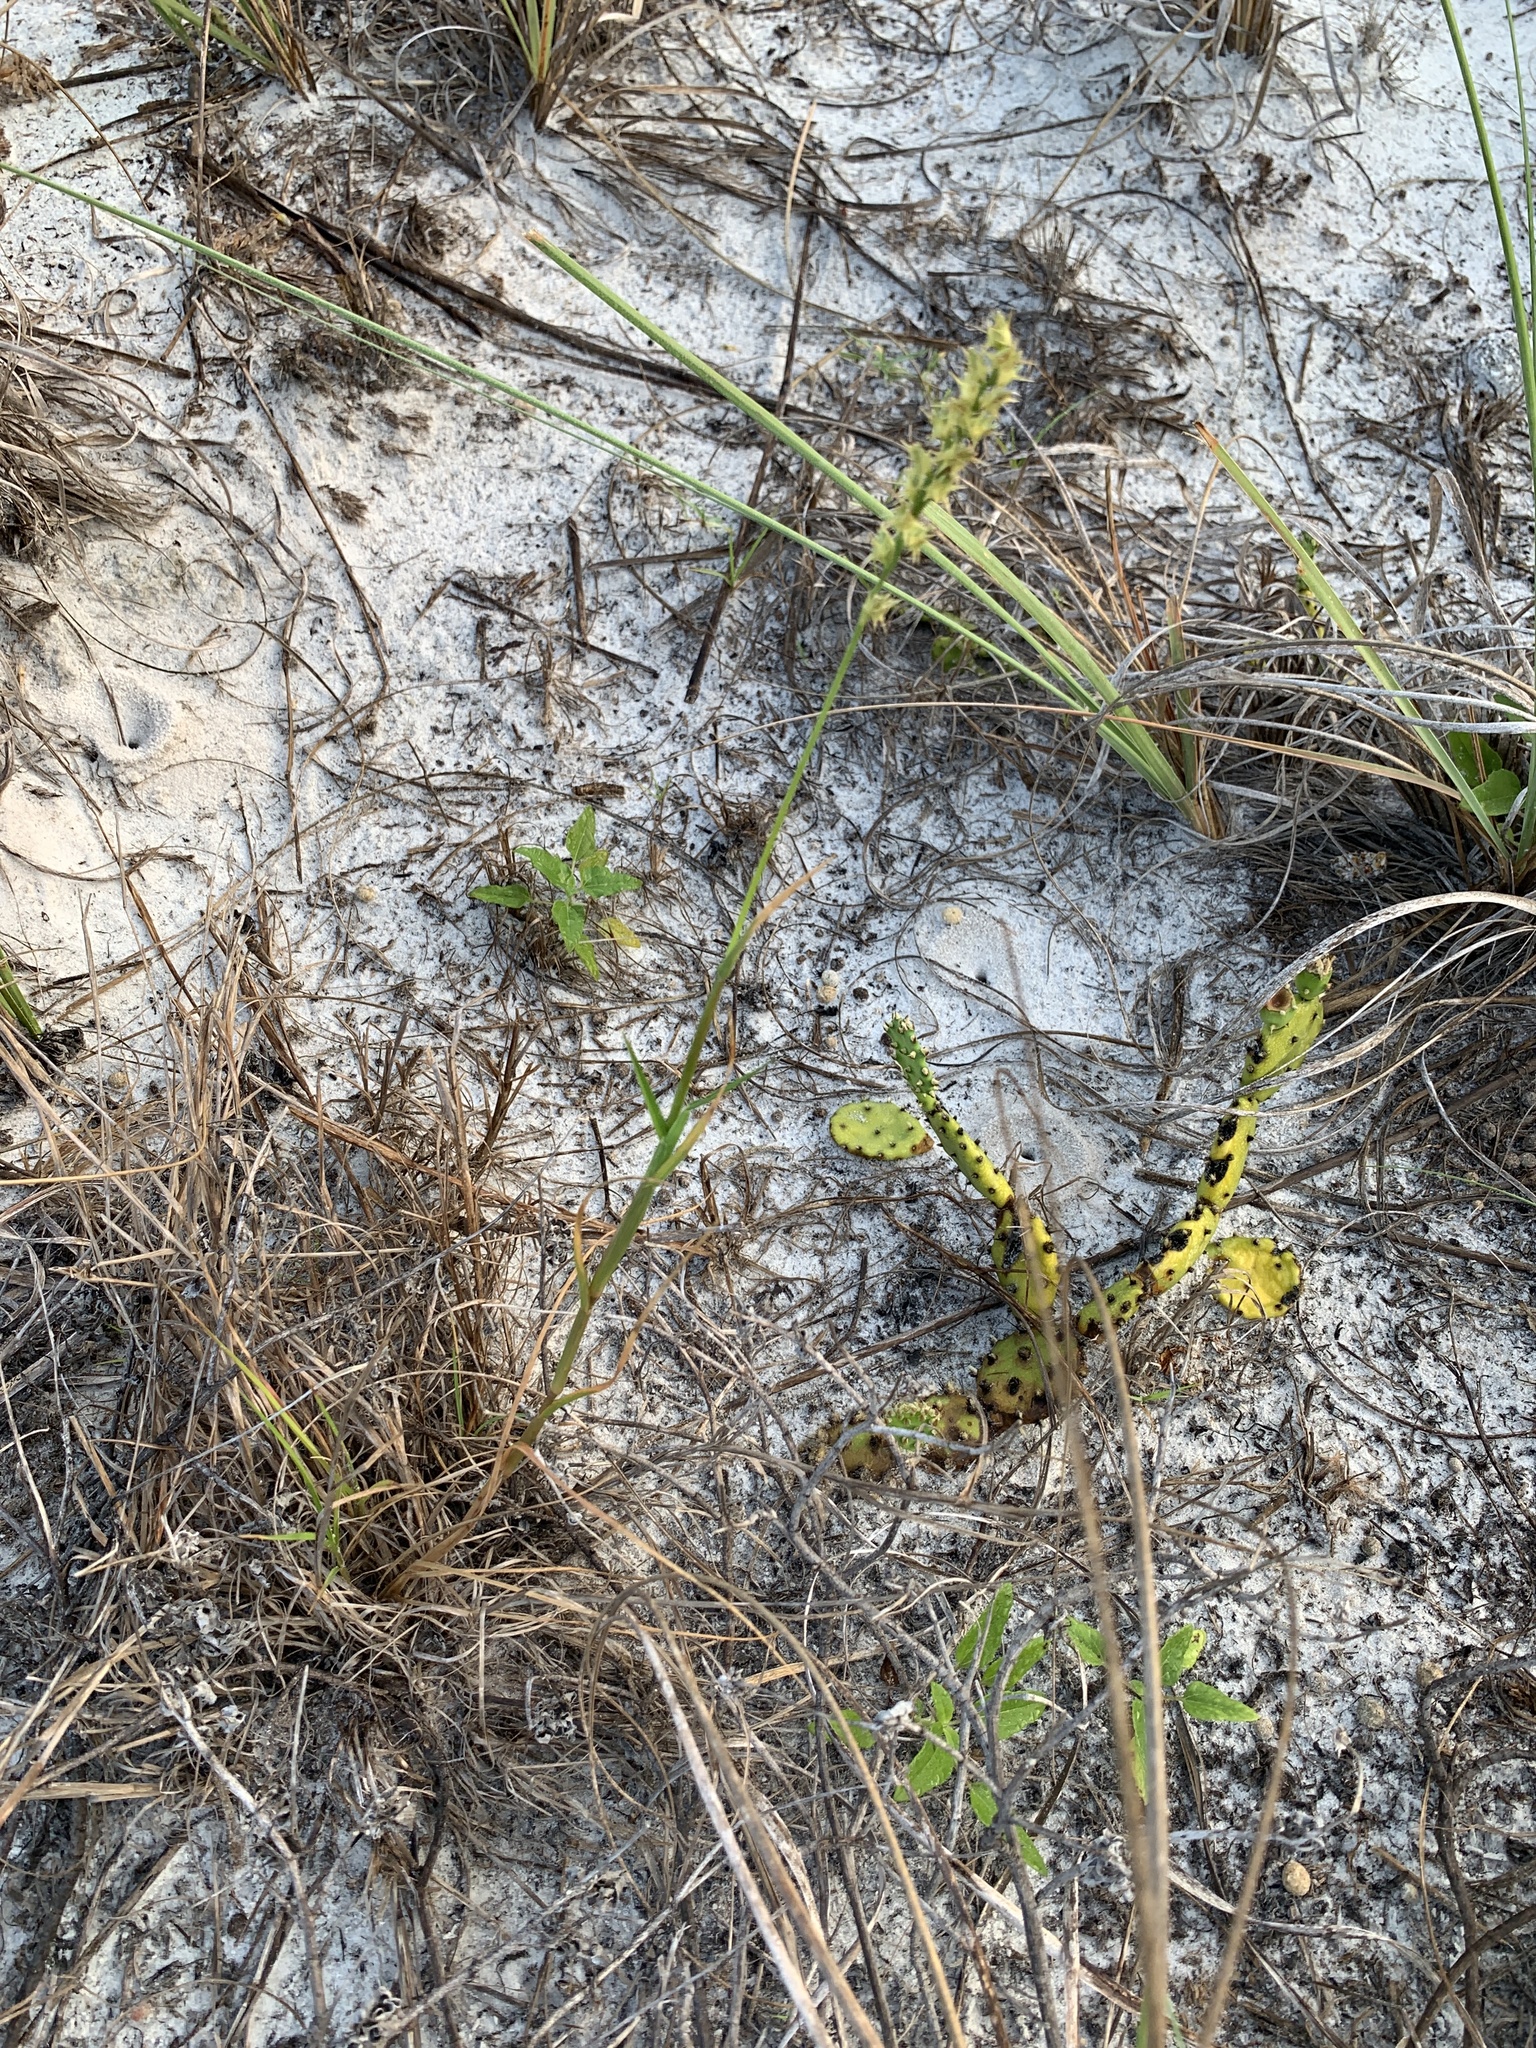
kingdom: Plantae
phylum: Tracheophyta
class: Liliopsida
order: Poales
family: Poaceae
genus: Cenchrus
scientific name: Cenchrus spinifex
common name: Coast sandbur
